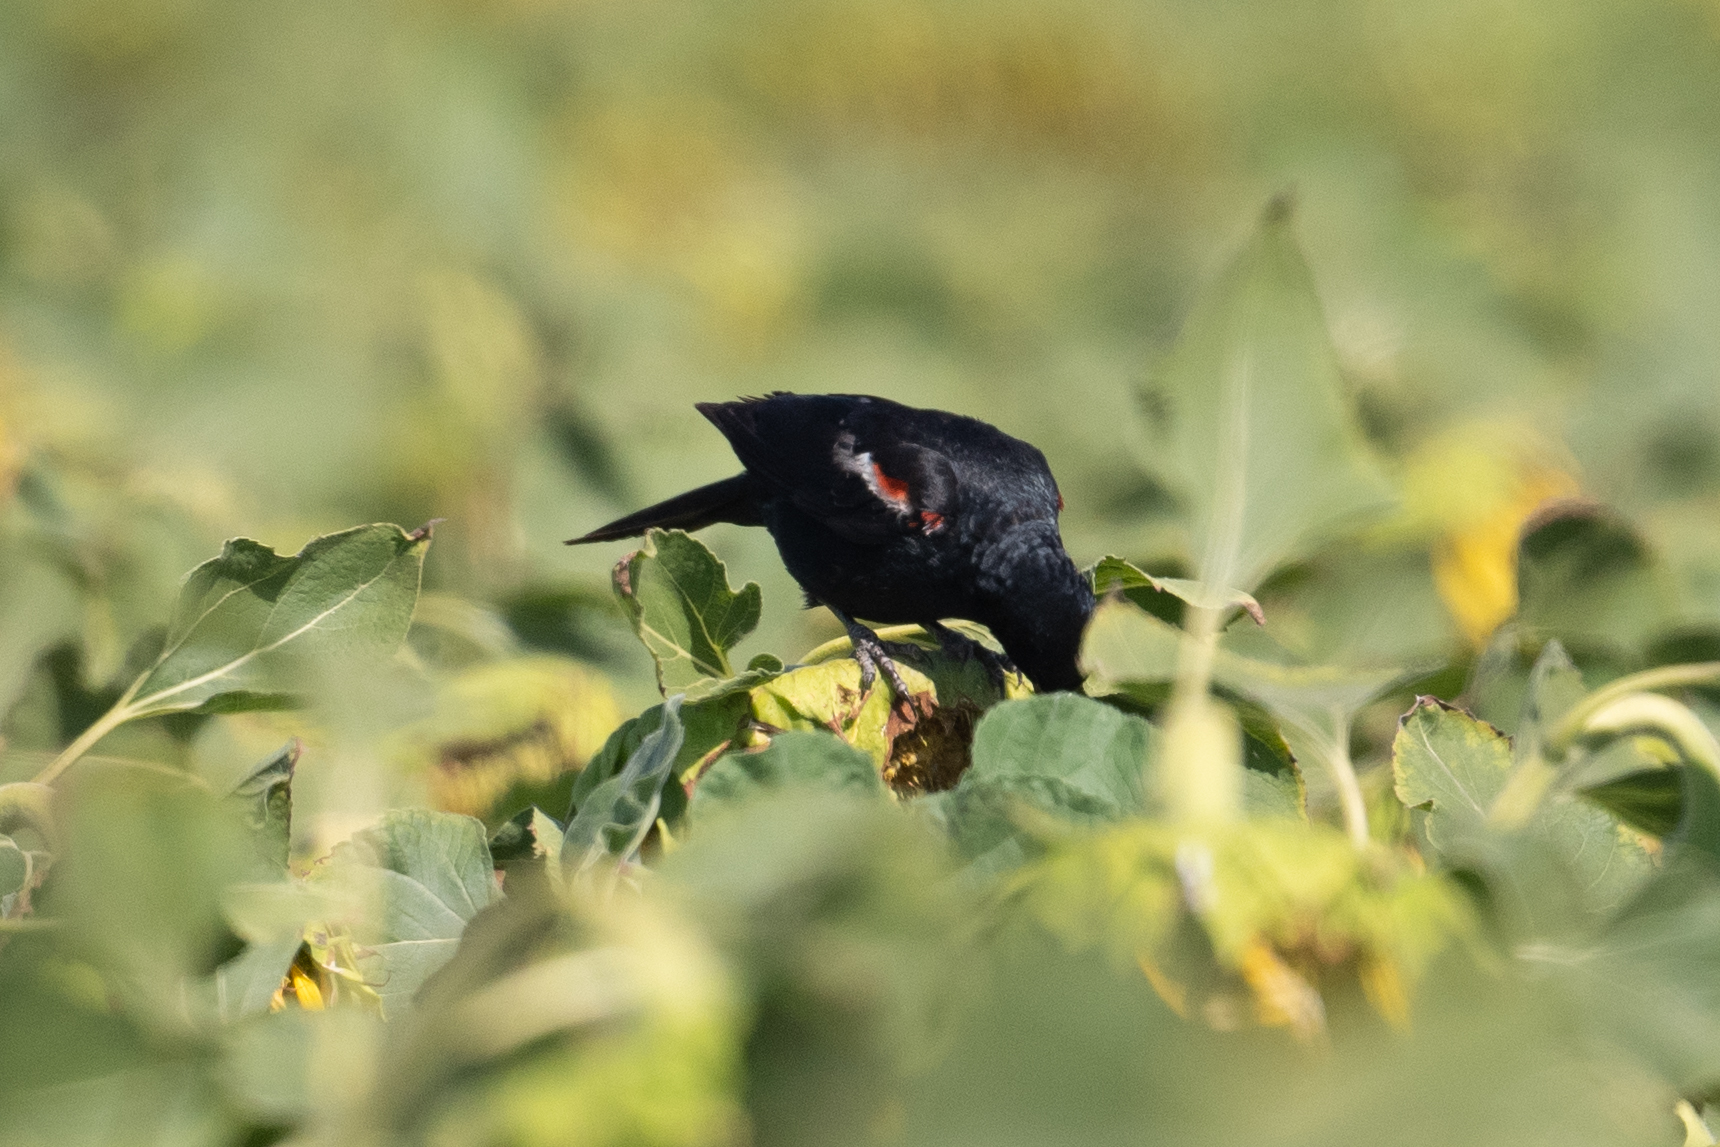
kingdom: Animalia
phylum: Chordata
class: Aves
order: Passeriformes
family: Icteridae
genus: Agelaius
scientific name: Agelaius tricolor
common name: Tricolored blackbird
